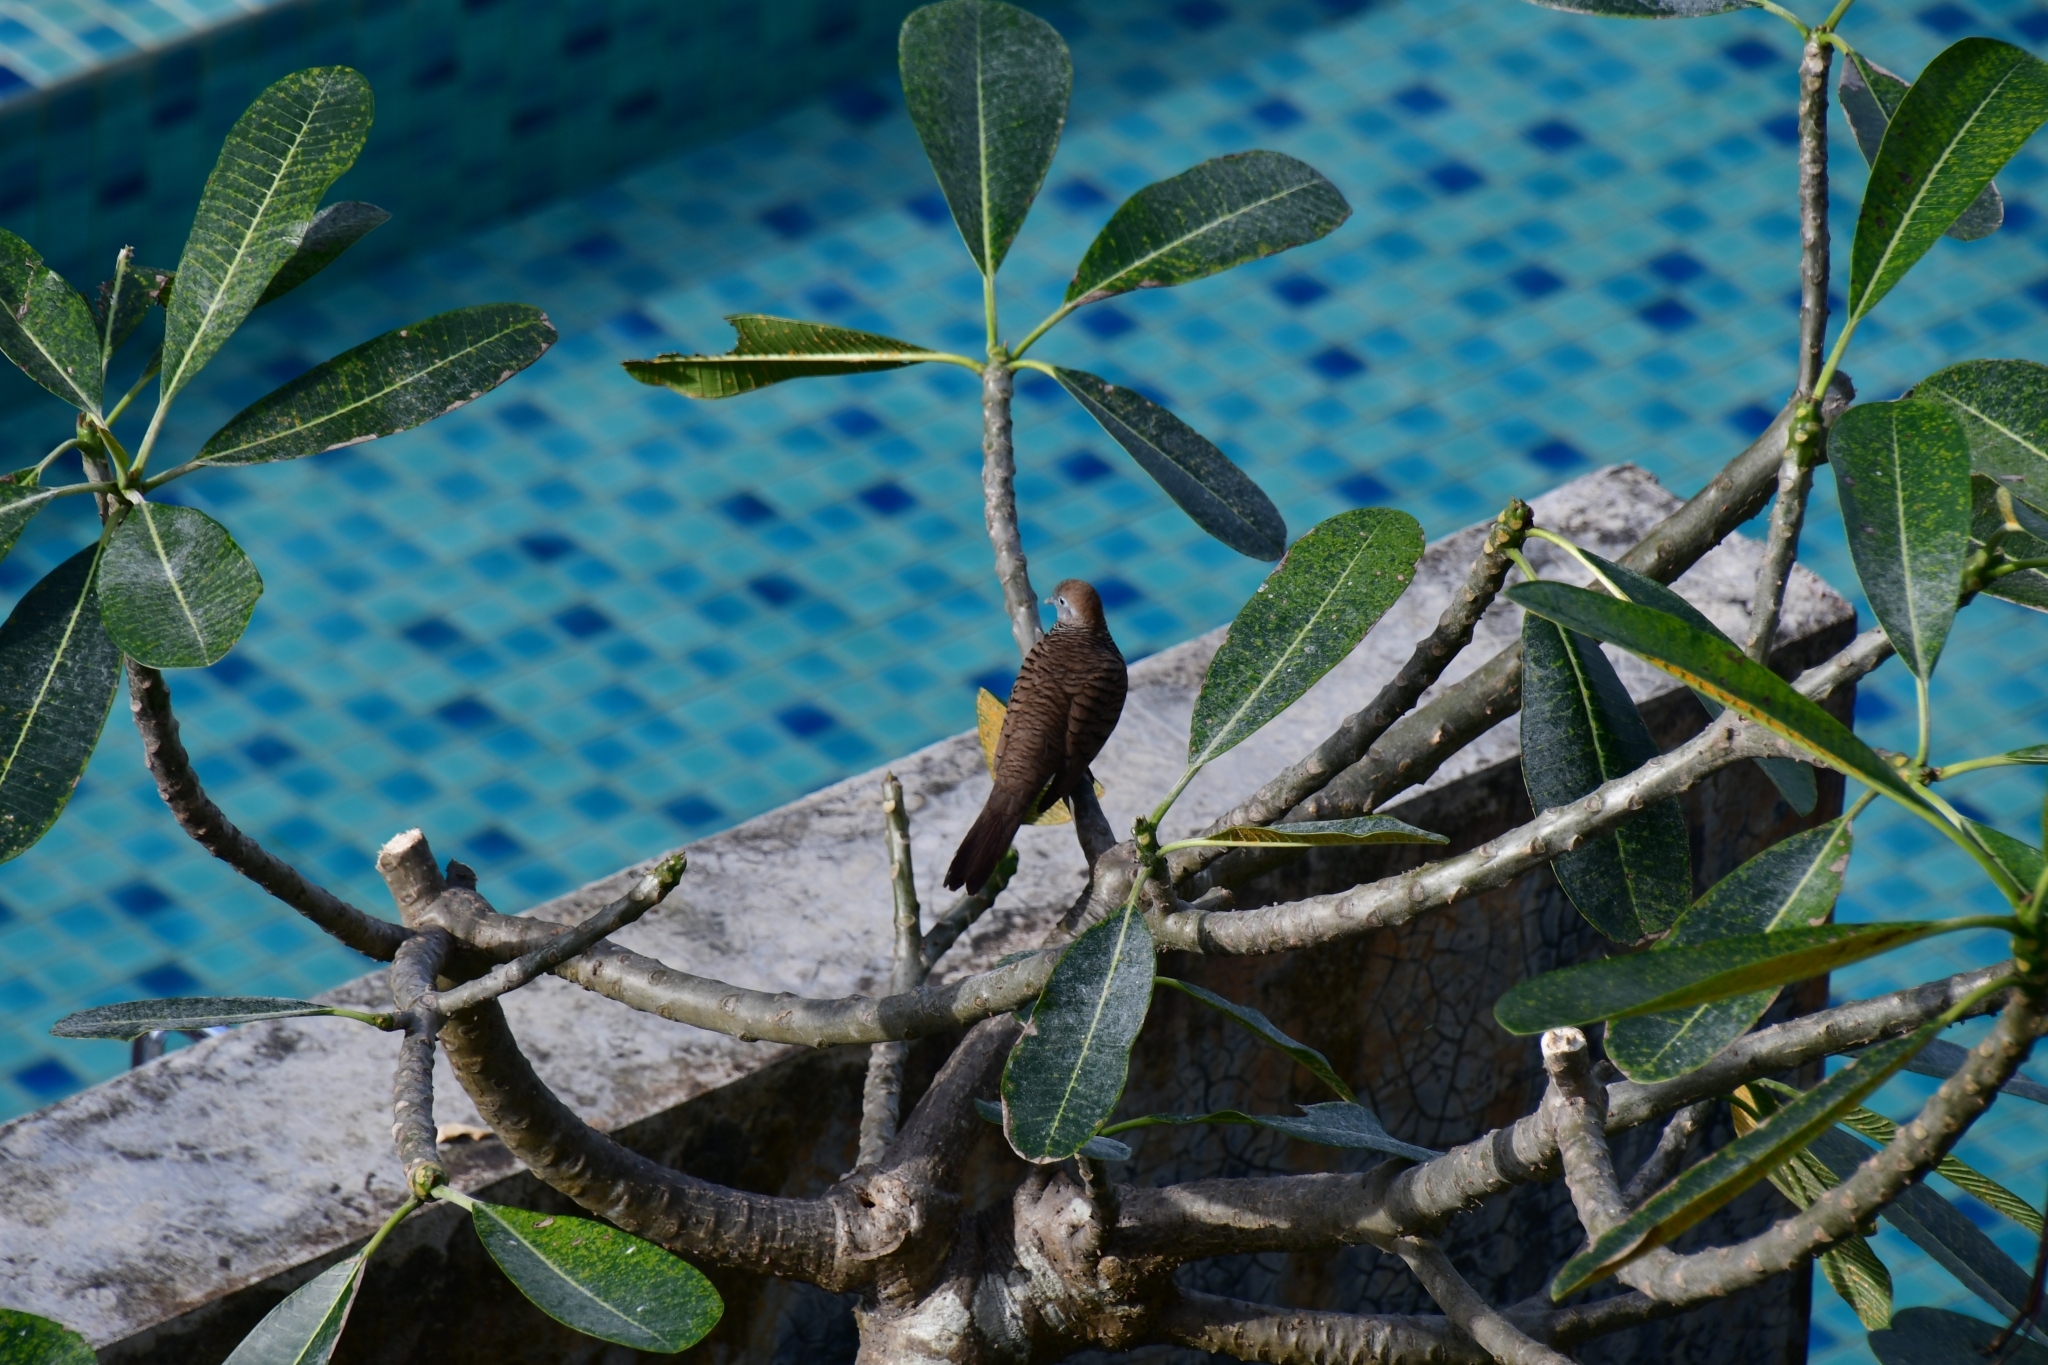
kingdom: Animalia
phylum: Chordata
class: Aves
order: Columbiformes
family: Columbidae
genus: Geopelia
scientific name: Geopelia striata
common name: Zebra dove
